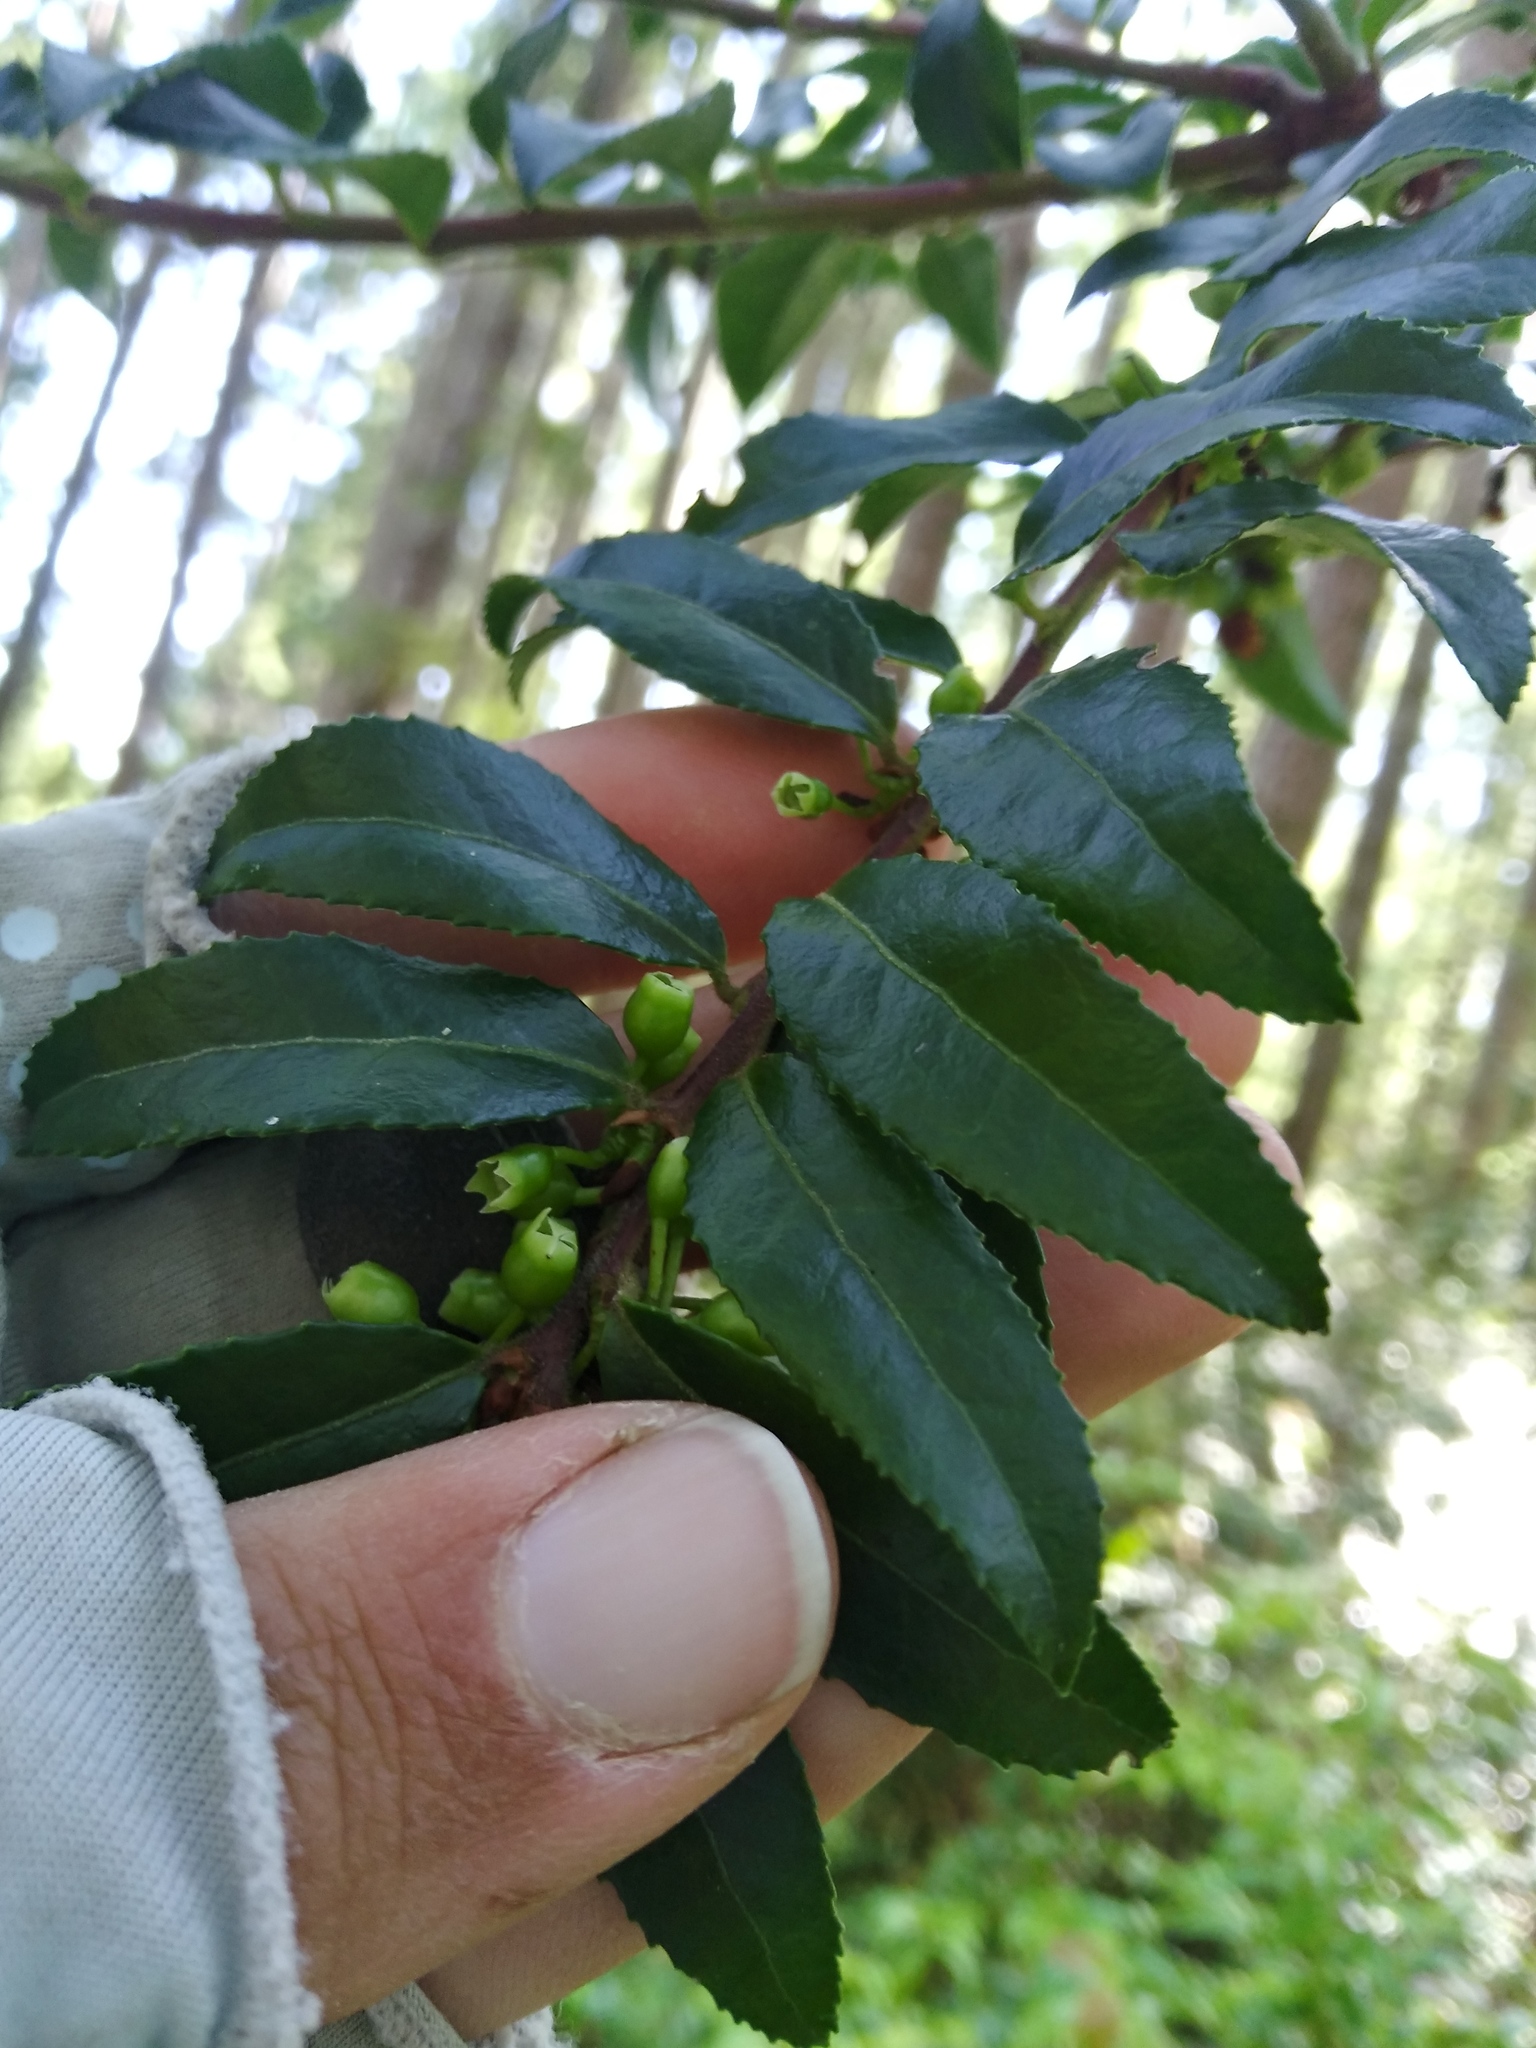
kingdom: Plantae
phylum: Tracheophyta
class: Magnoliopsida
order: Ericales
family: Ericaceae
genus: Vaccinium
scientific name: Vaccinium ovatum
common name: California-huckleberry
